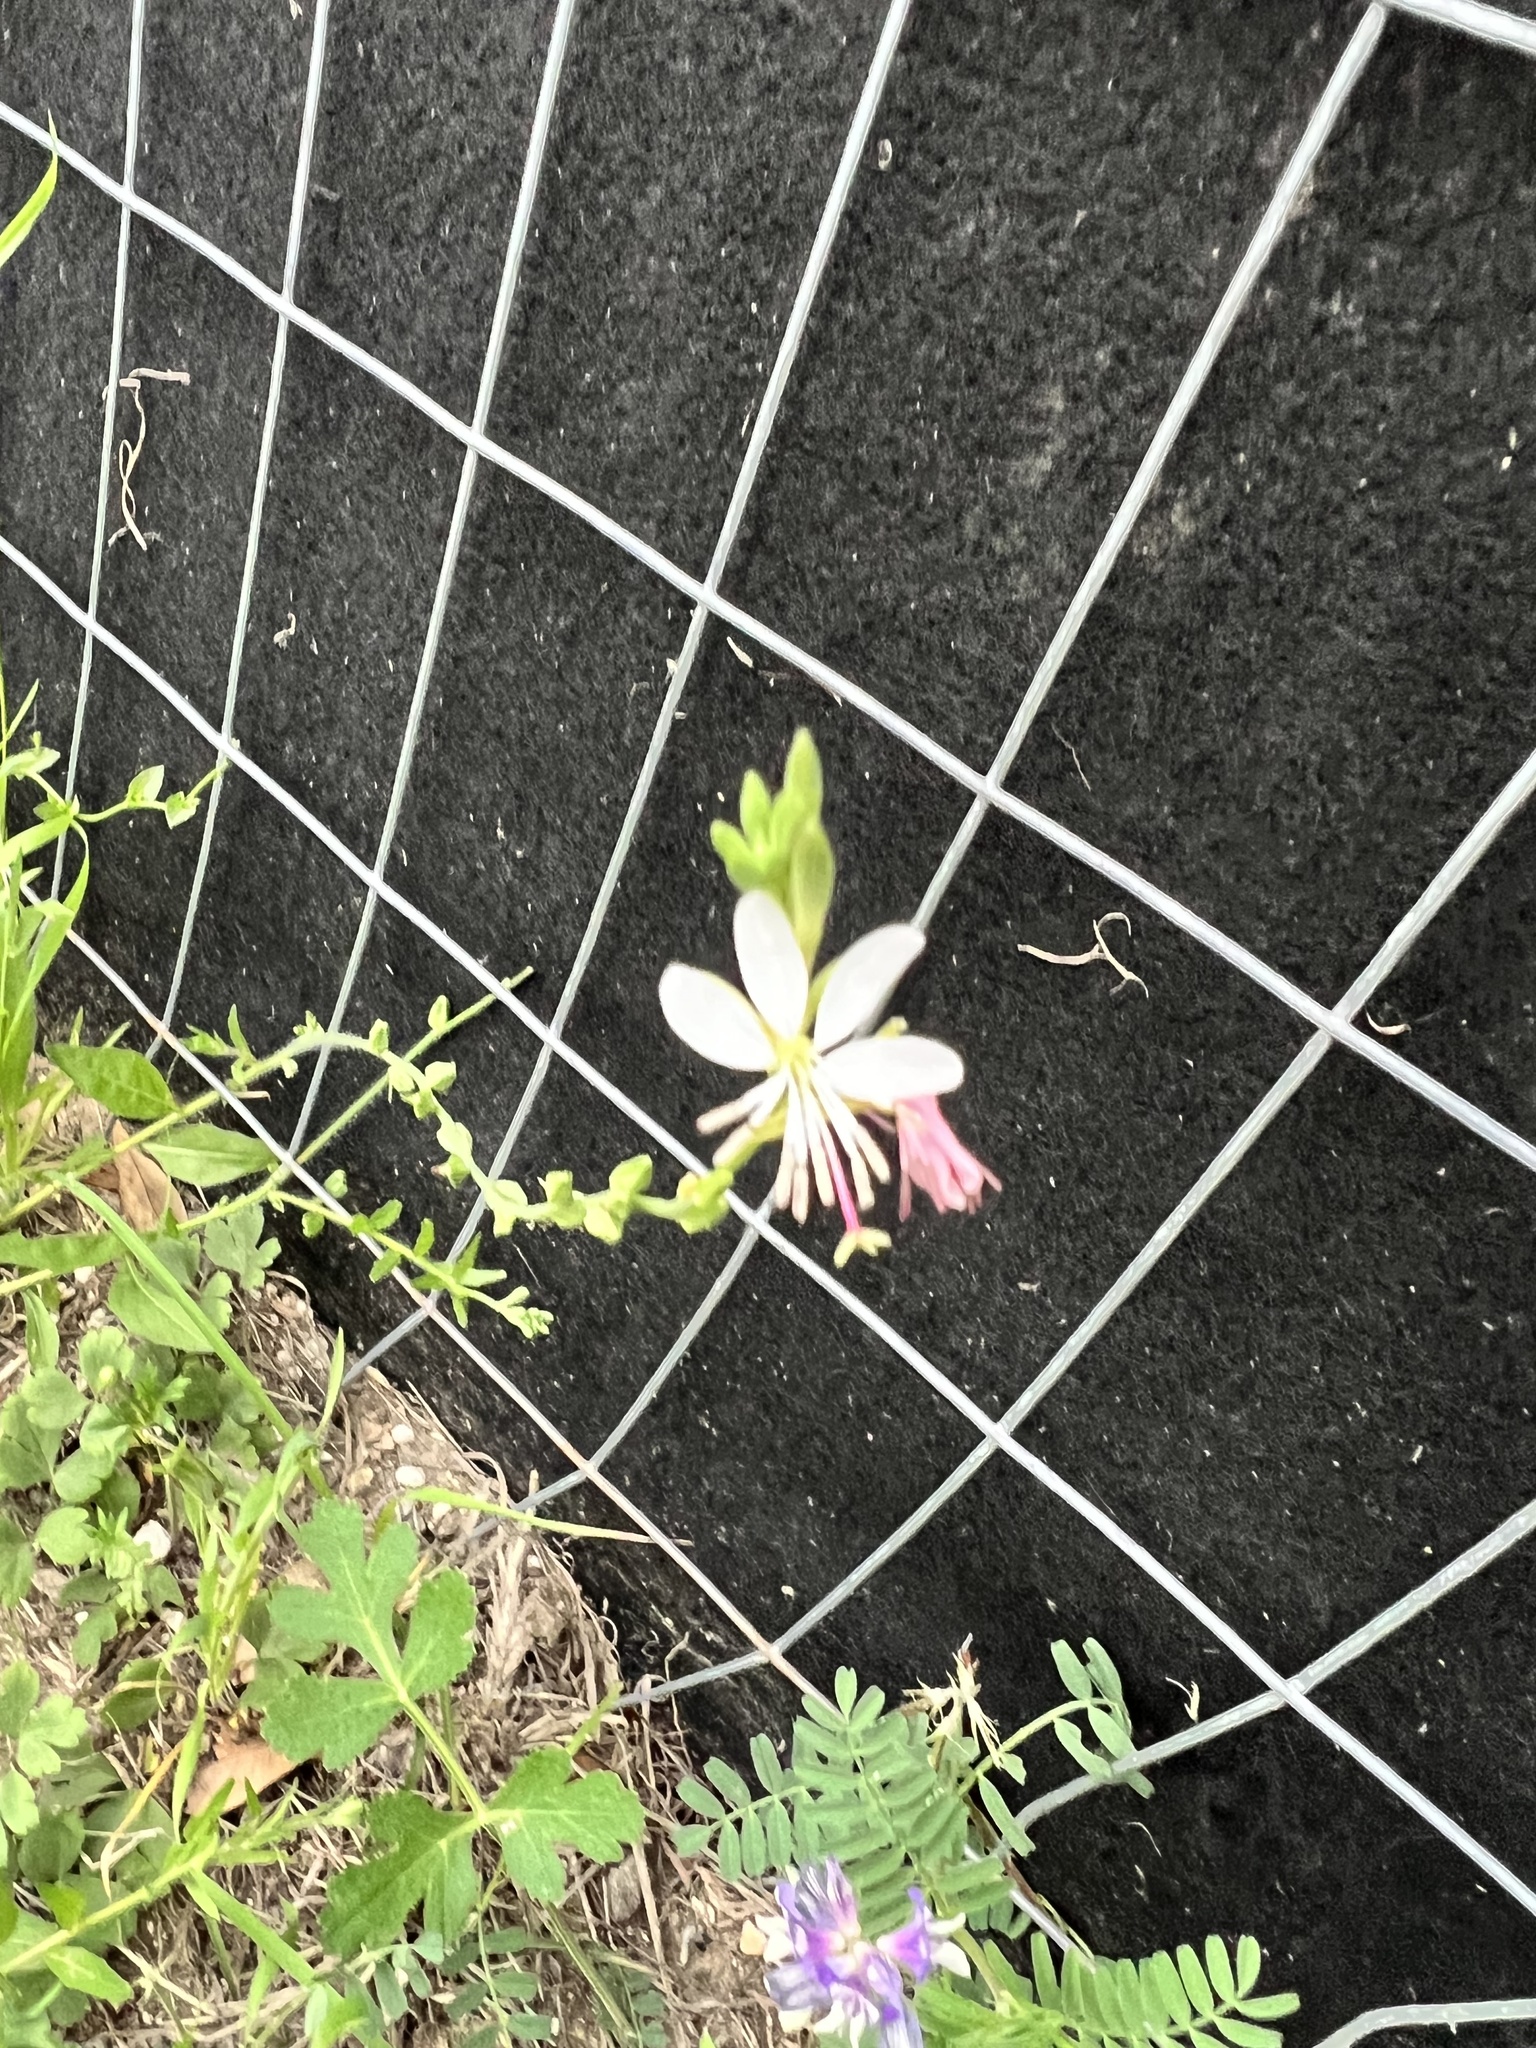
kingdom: Plantae
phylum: Tracheophyta
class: Magnoliopsida
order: Myrtales
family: Onagraceae
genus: Oenothera
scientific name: Oenothera suffulta
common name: Kisses
